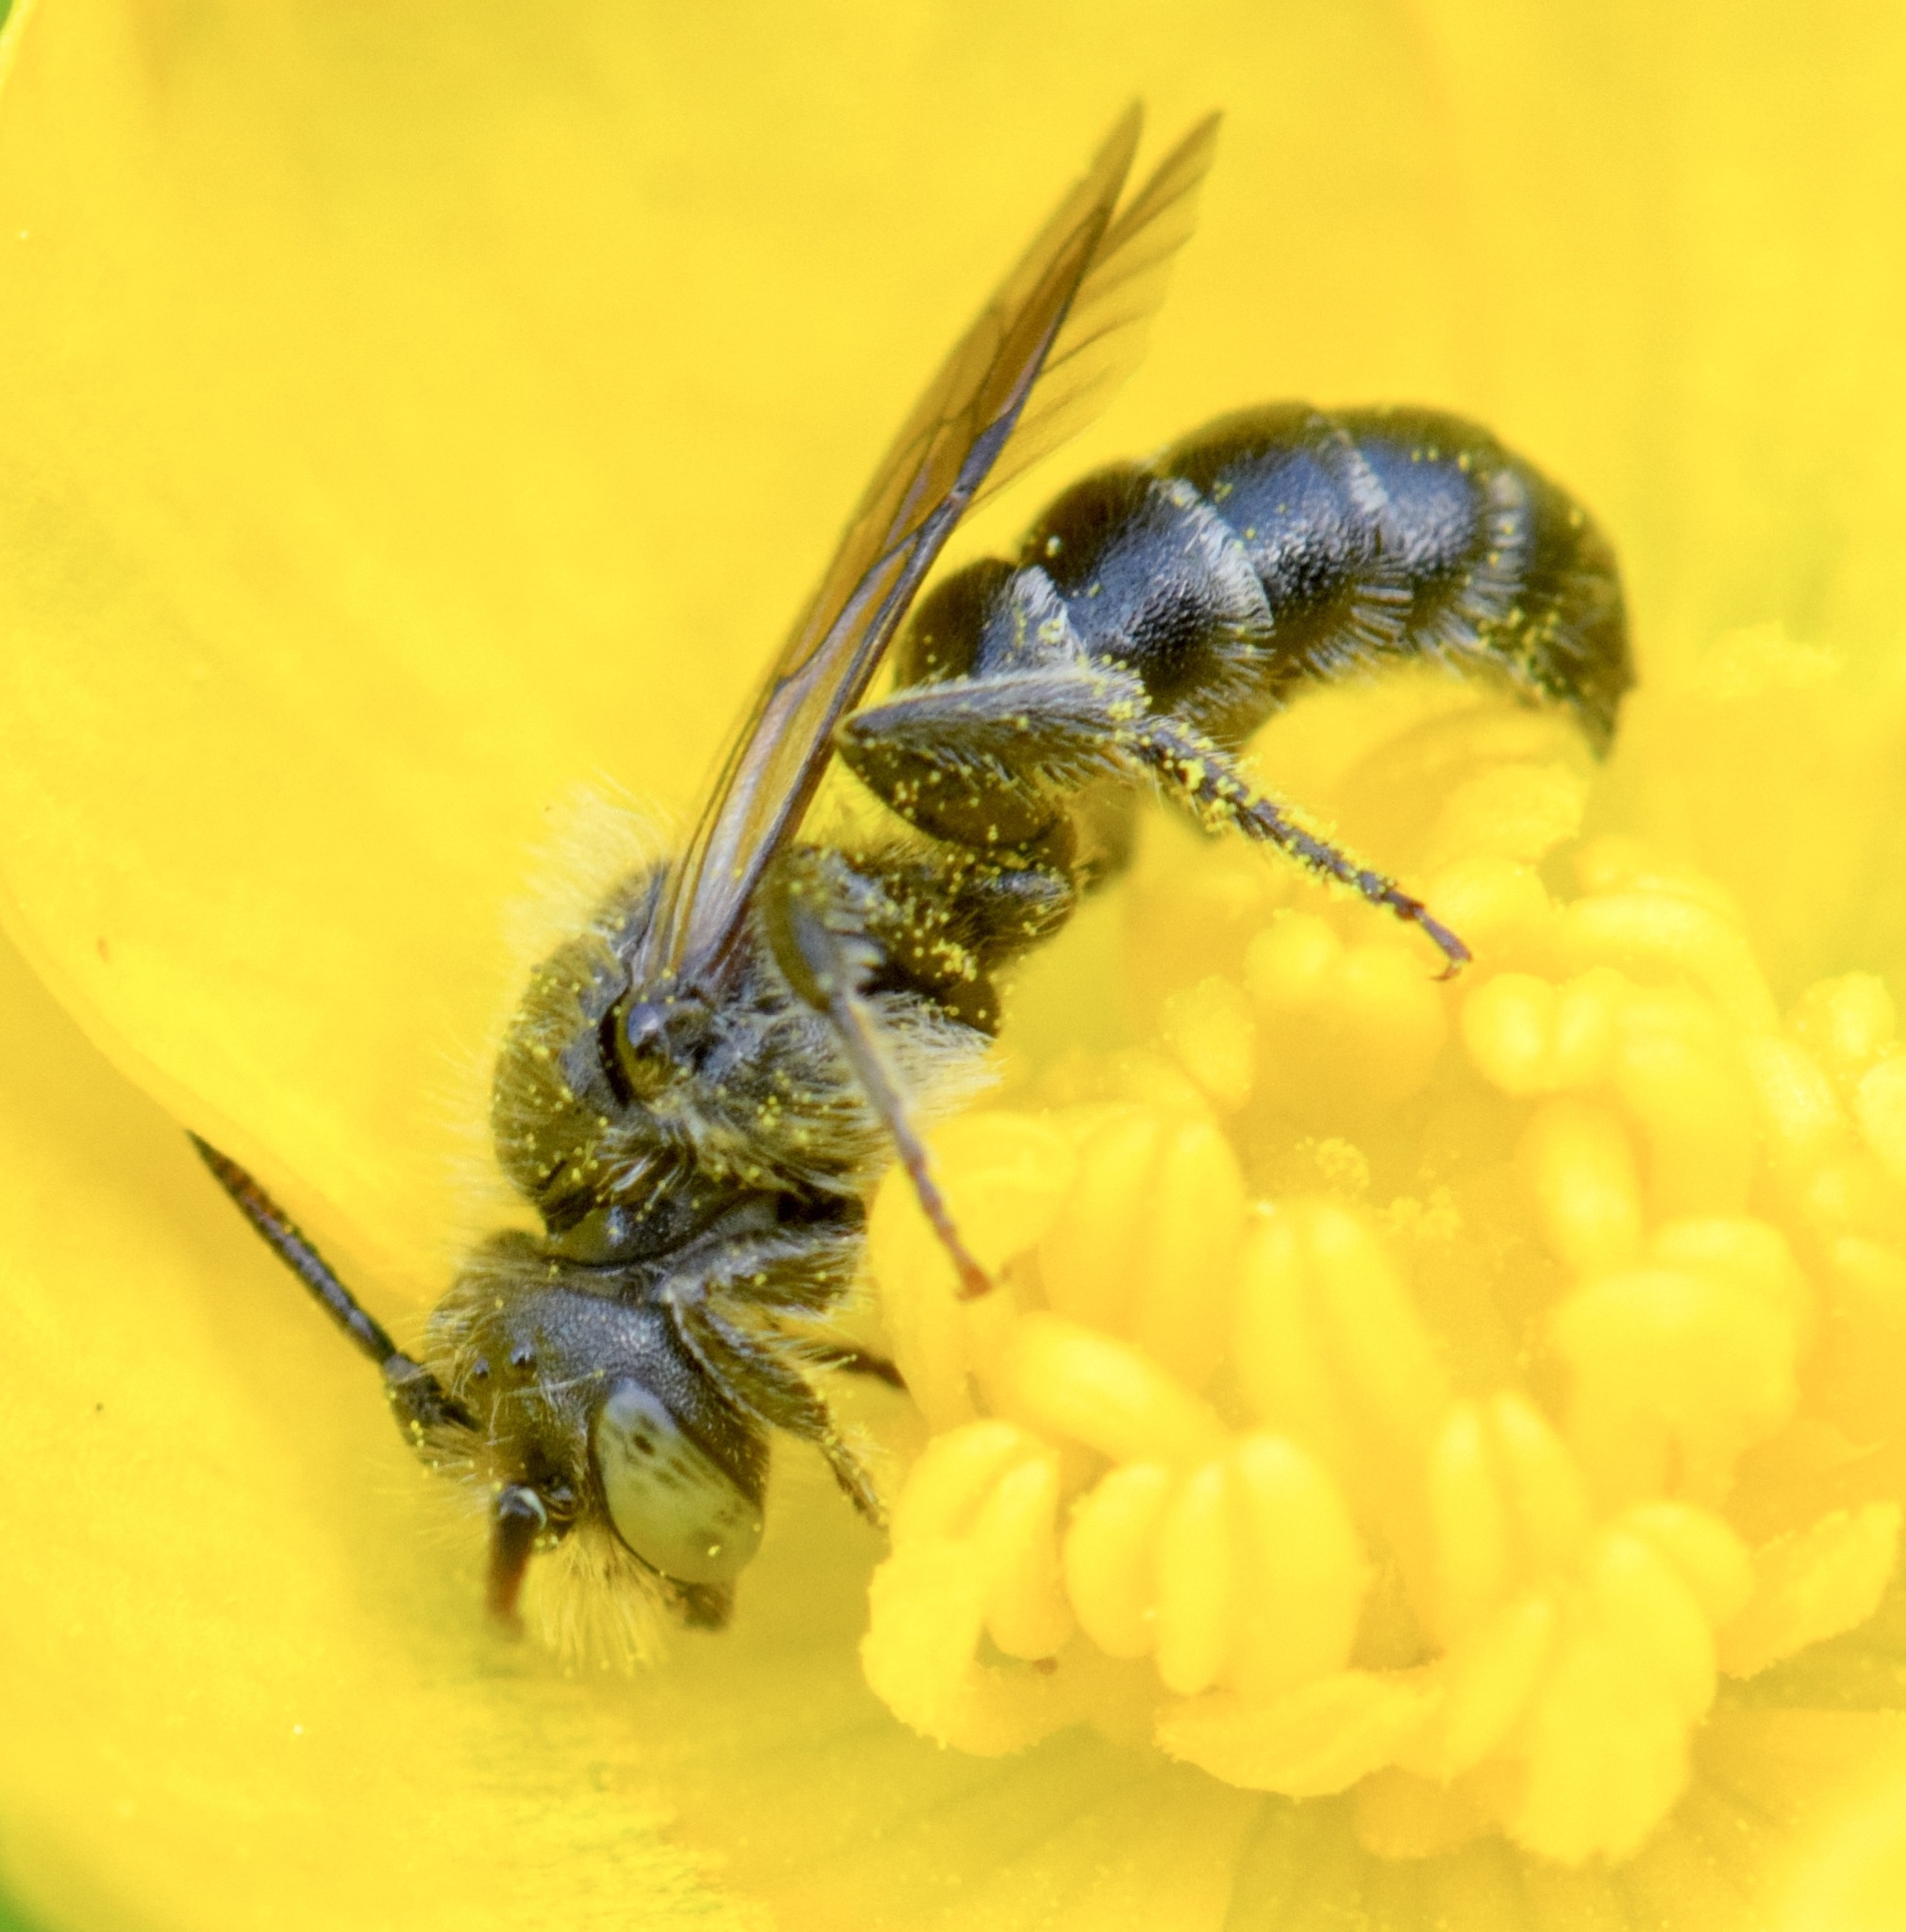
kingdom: Animalia
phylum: Arthropoda
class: Insecta
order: Hymenoptera
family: Megachilidae
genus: Hoplitis
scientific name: Hoplitis producta
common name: Produced small-mason
